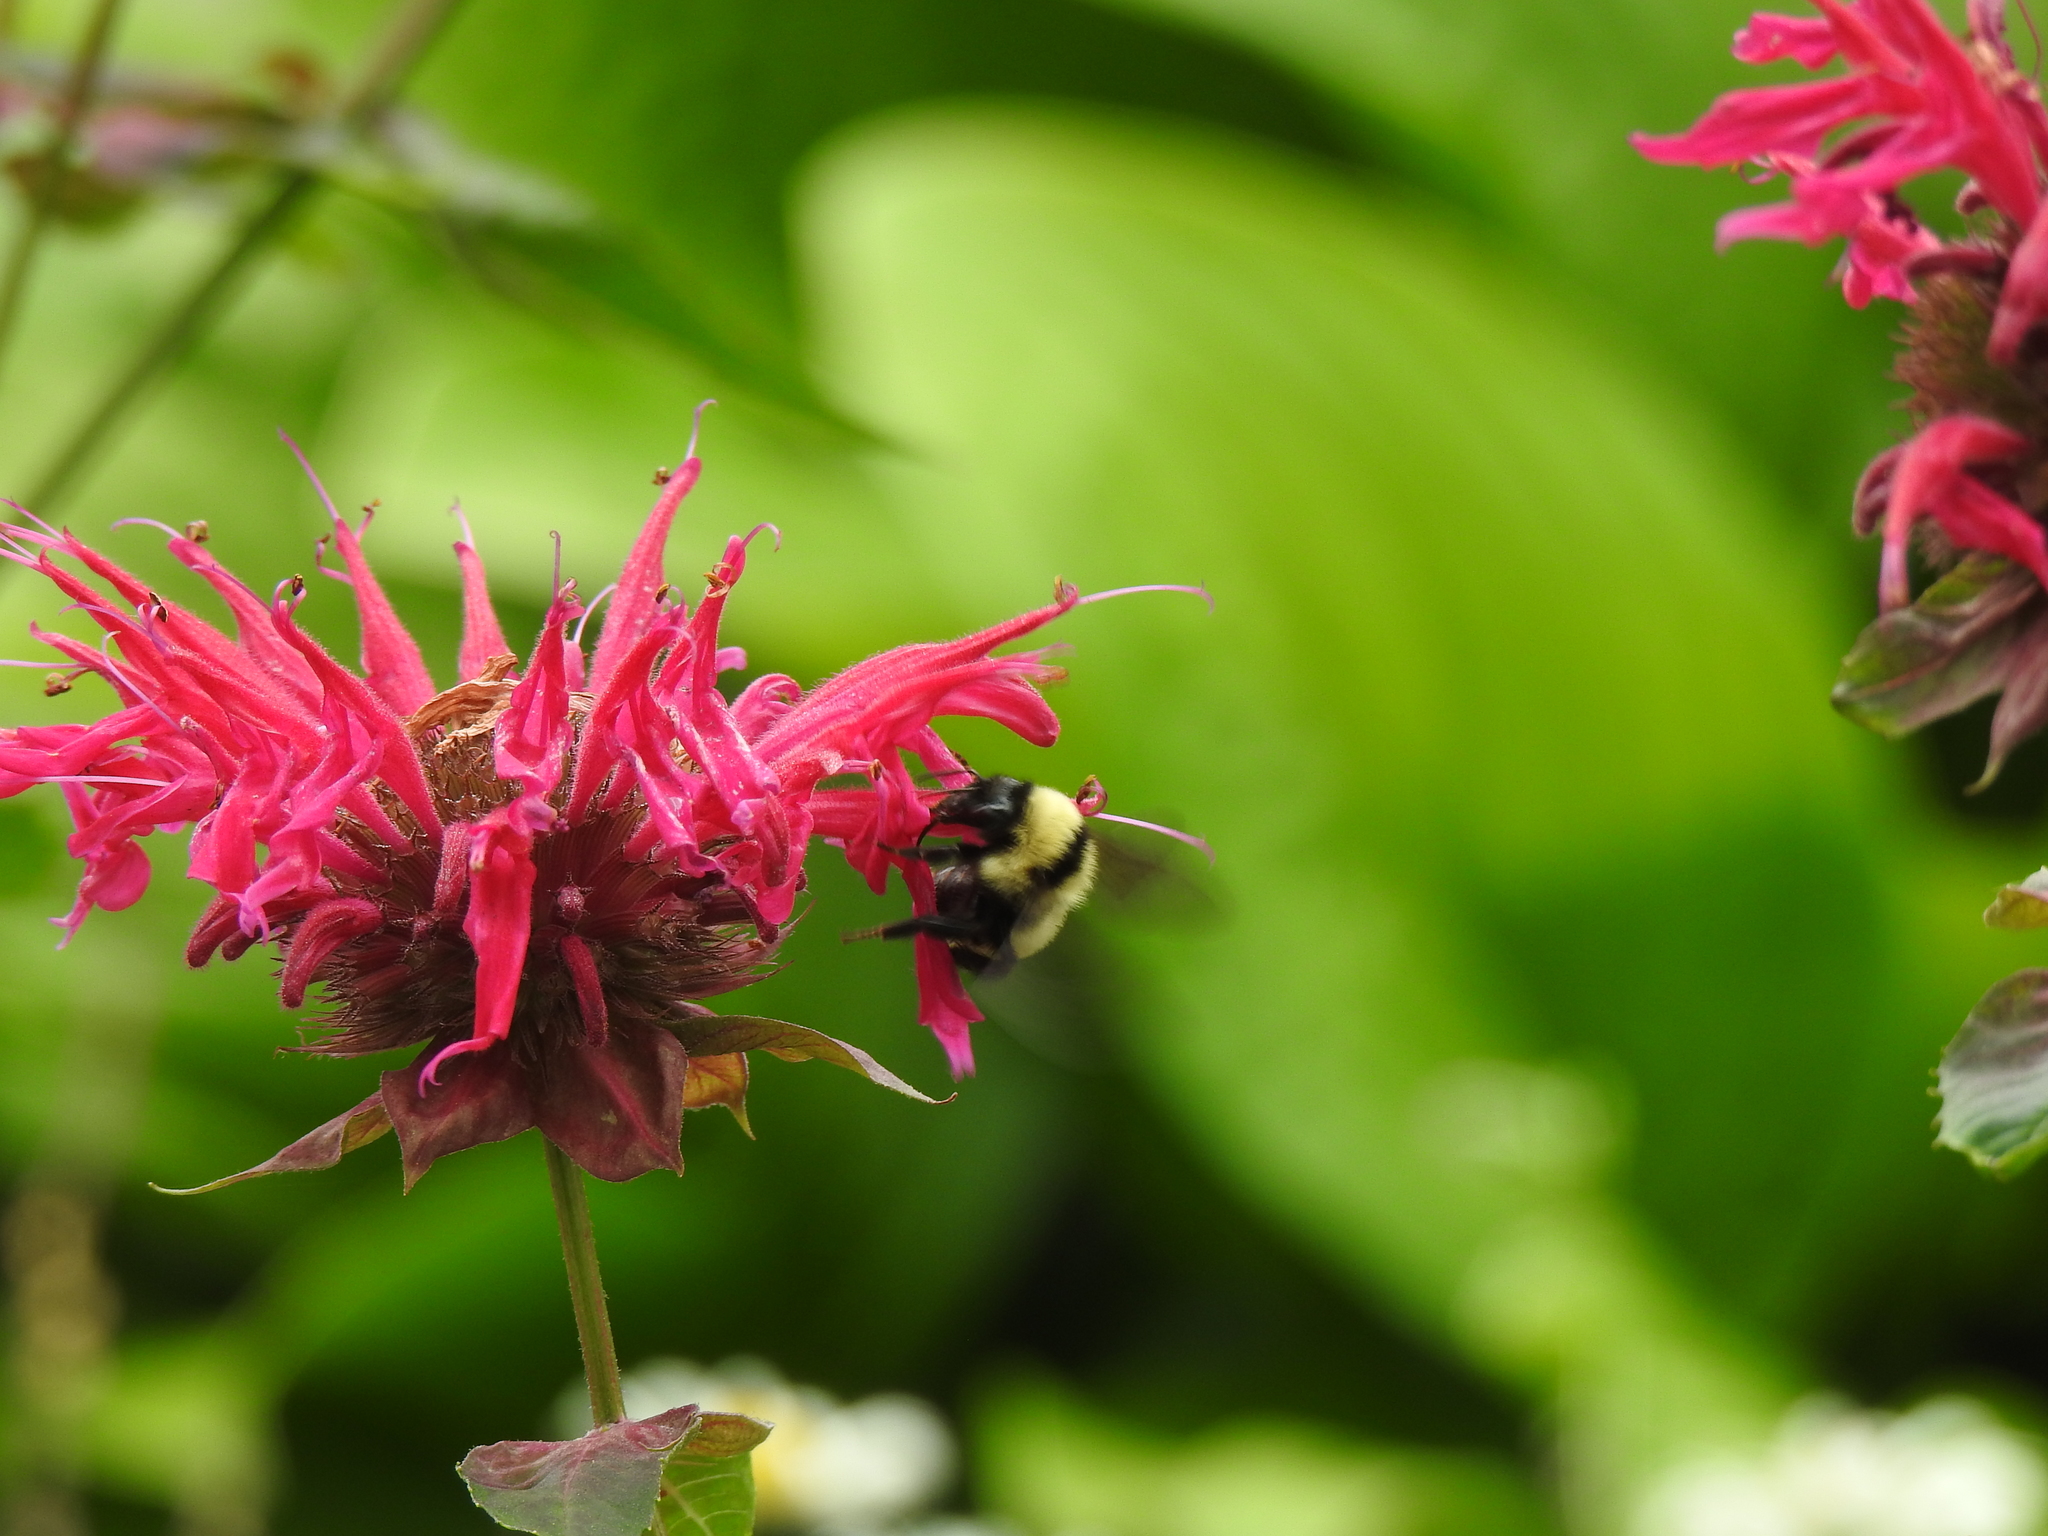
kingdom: Animalia
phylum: Arthropoda
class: Insecta
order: Hymenoptera
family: Apidae
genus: Bombus
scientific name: Bombus fervidus
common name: Yellow bumble bee
